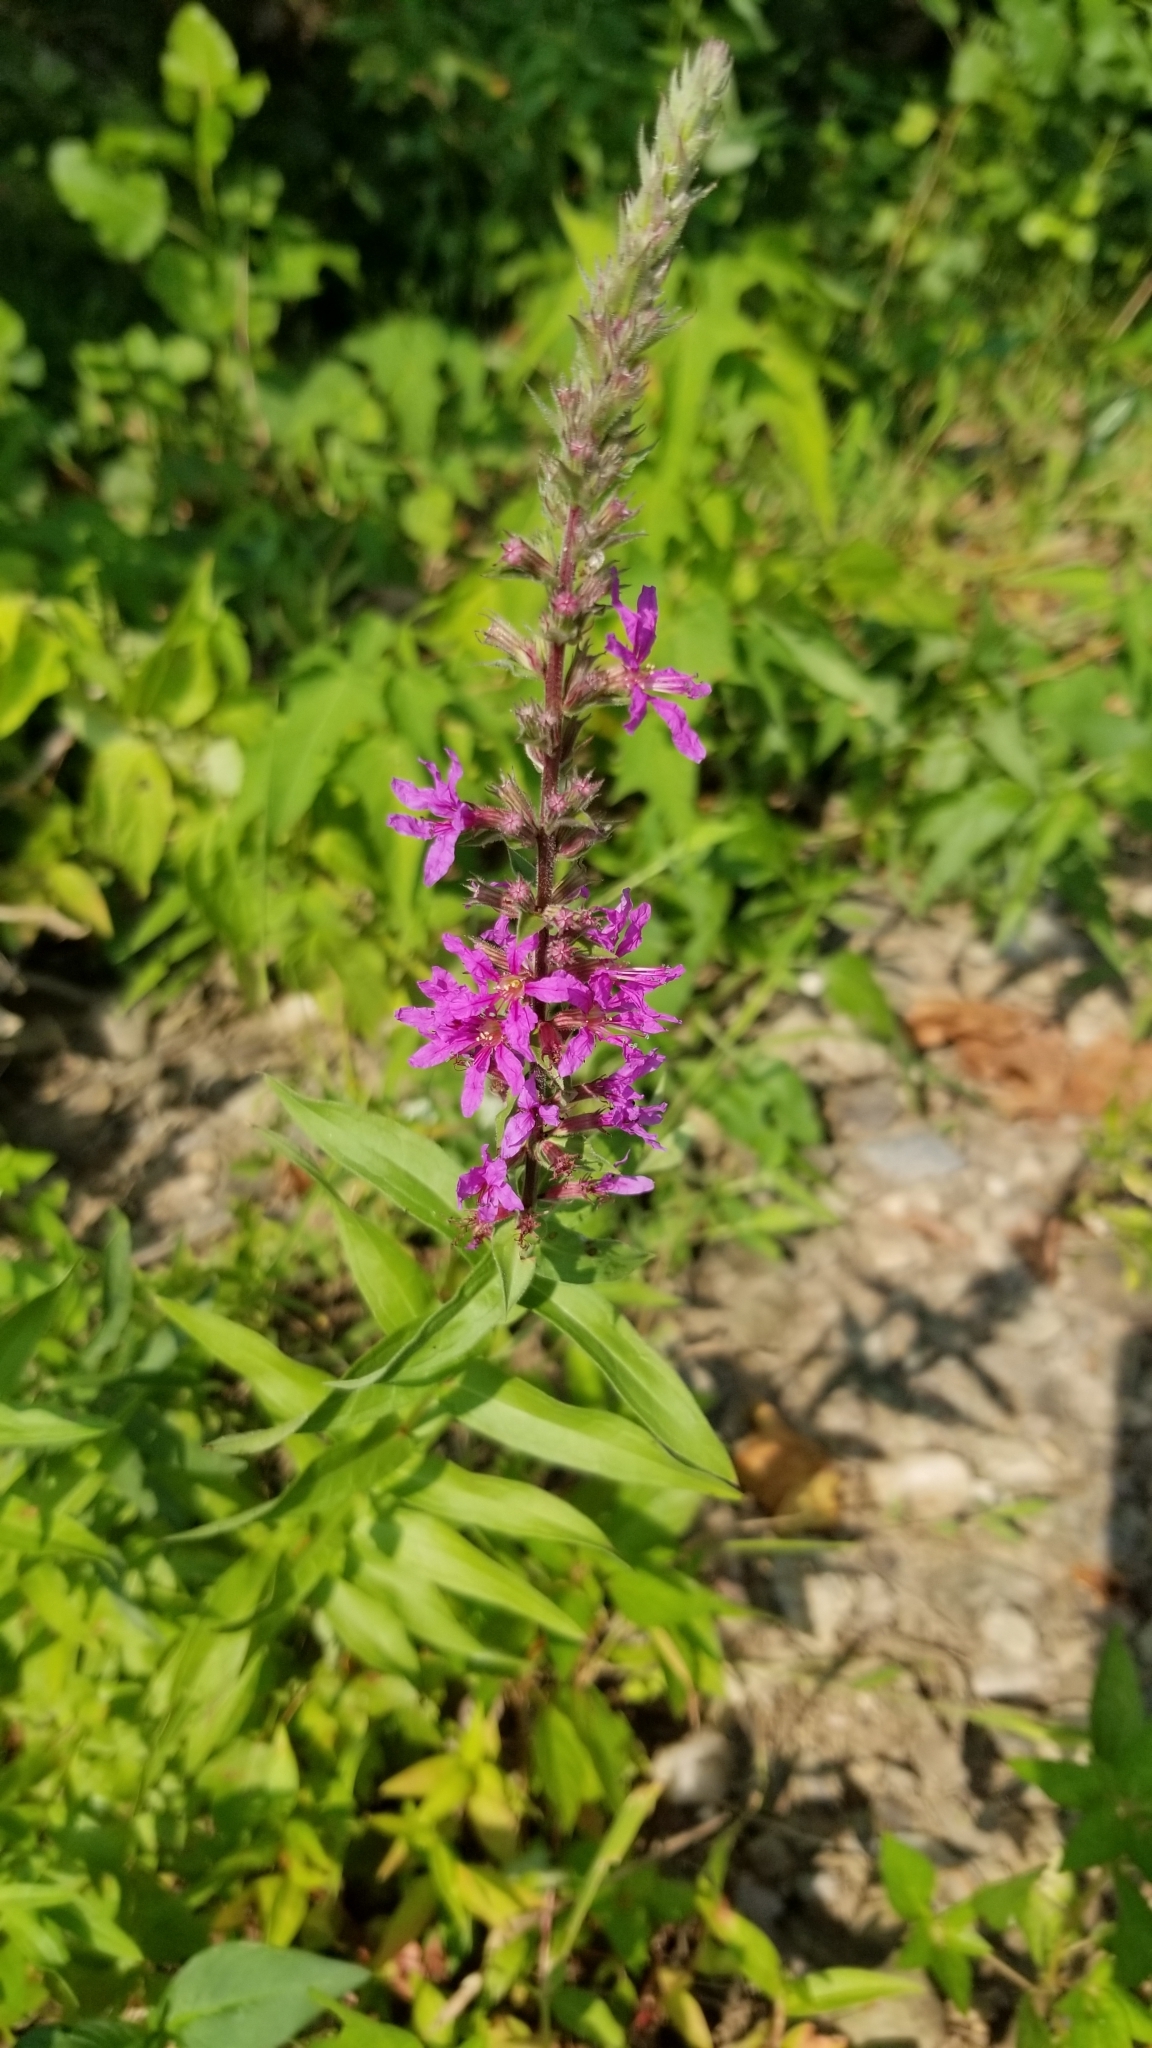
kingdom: Plantae
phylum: Tracheophyta
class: Magnoliopsida
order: Myrtales
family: Lythraceae
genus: Lythrum
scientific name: Lythrum salicaria
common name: Purple loosestrife
